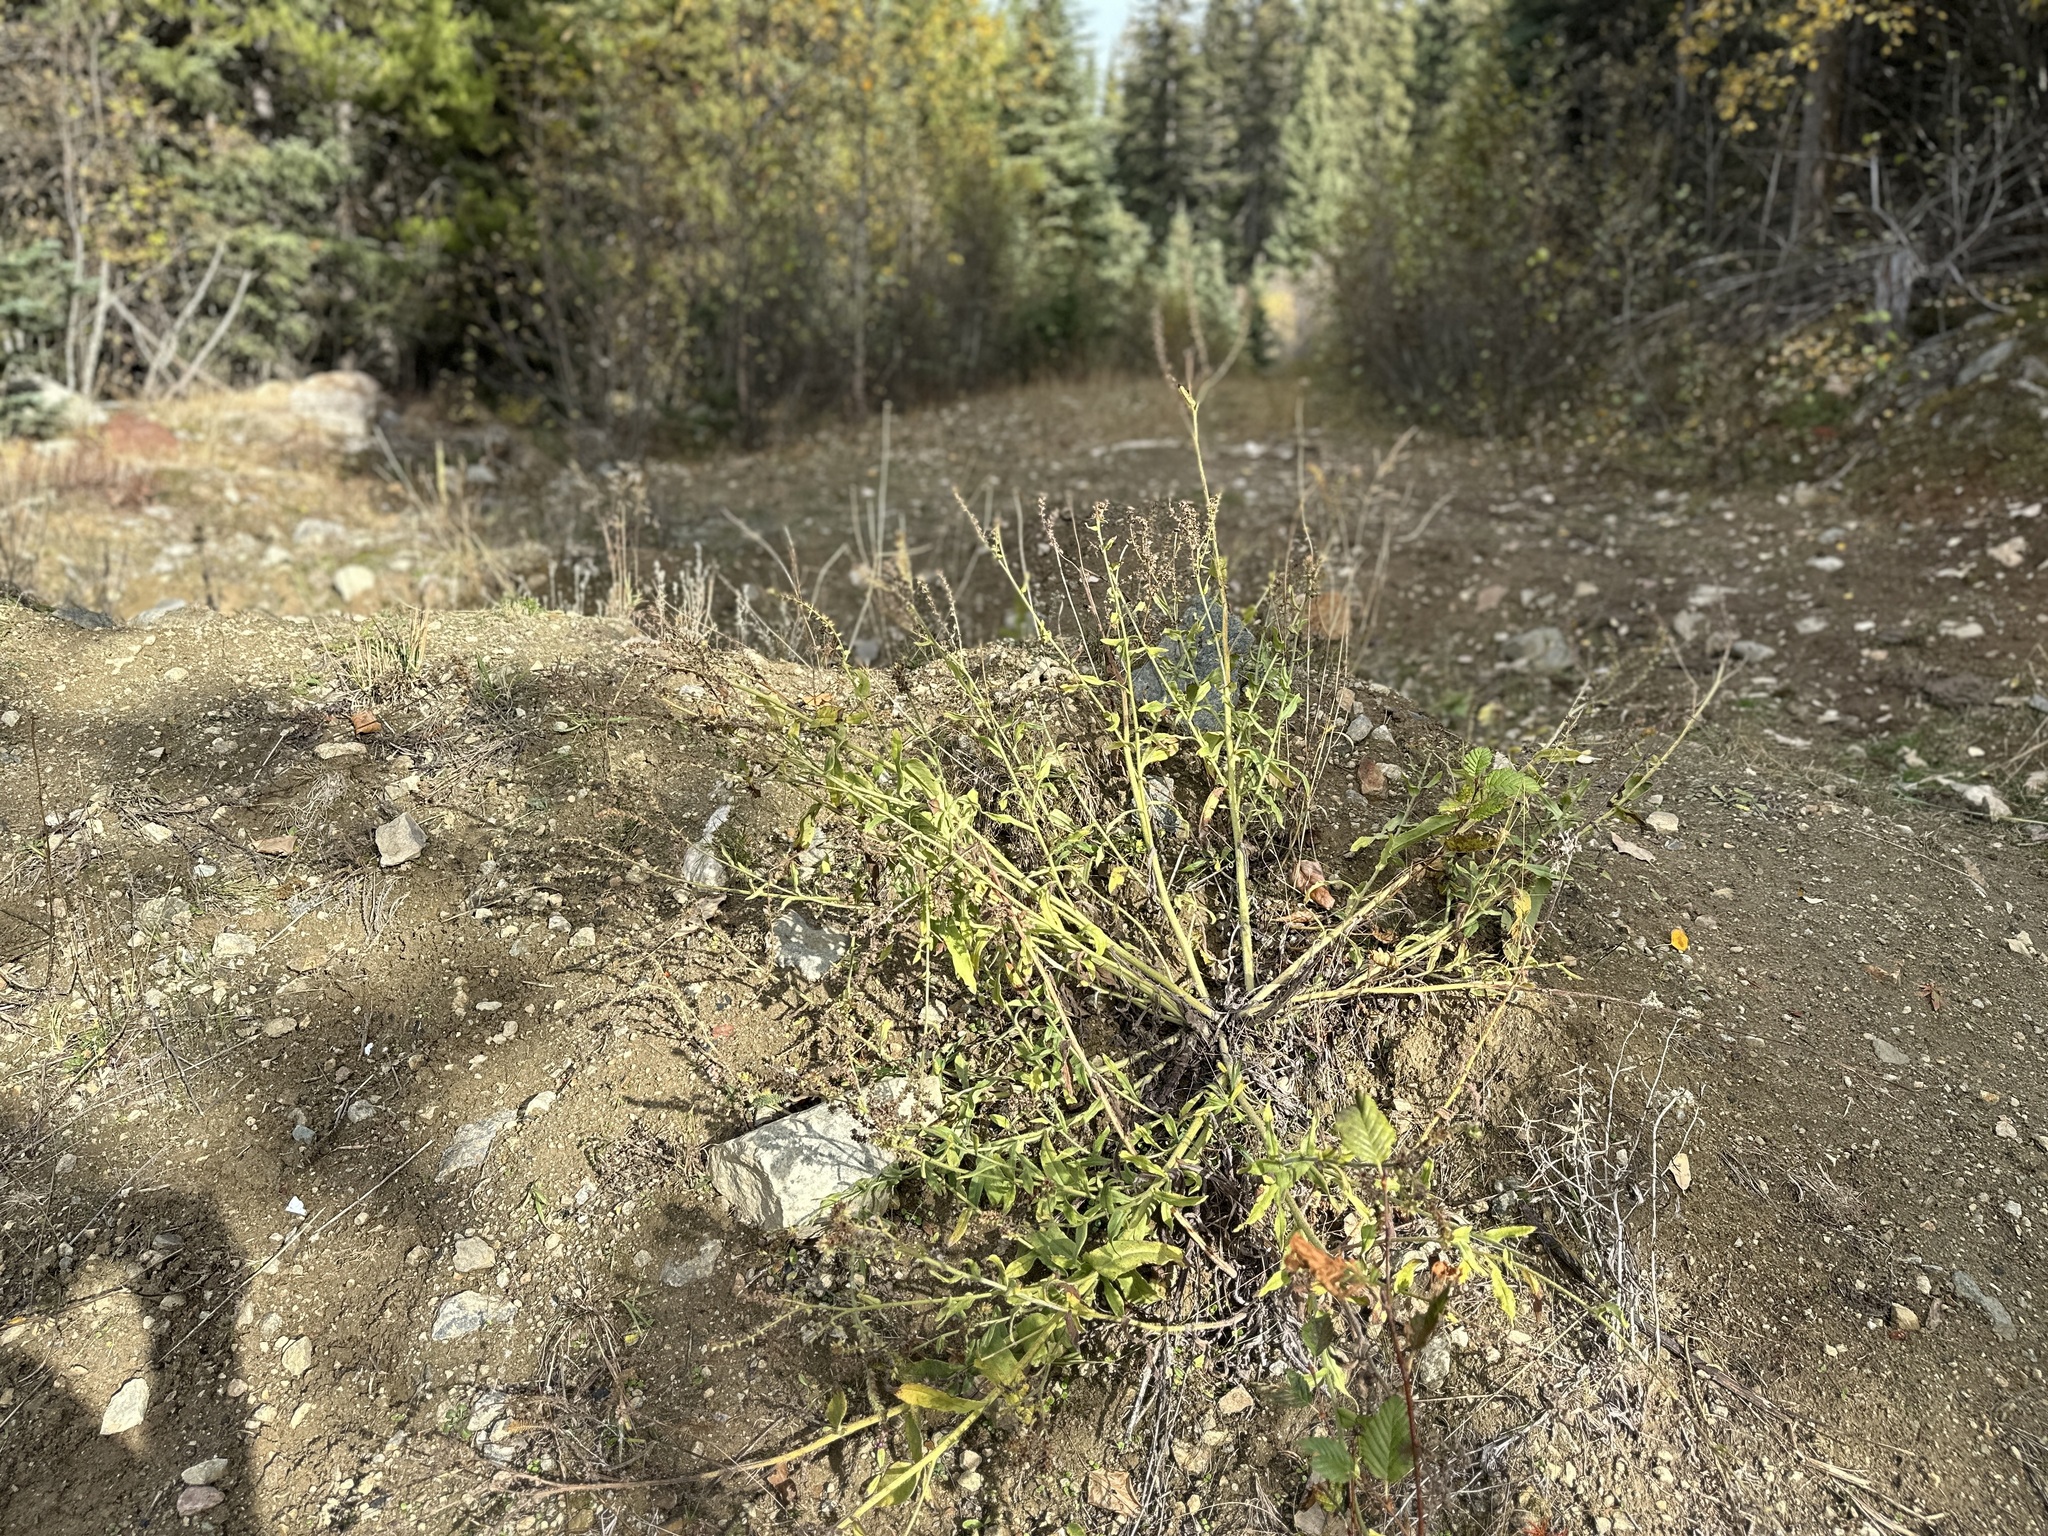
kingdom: Plantae
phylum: Tracheophyta
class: Magnoliopsida
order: Boraginales
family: Boraginaceae
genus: Anchusa
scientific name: Anchusa officinalis
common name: Alkanet
